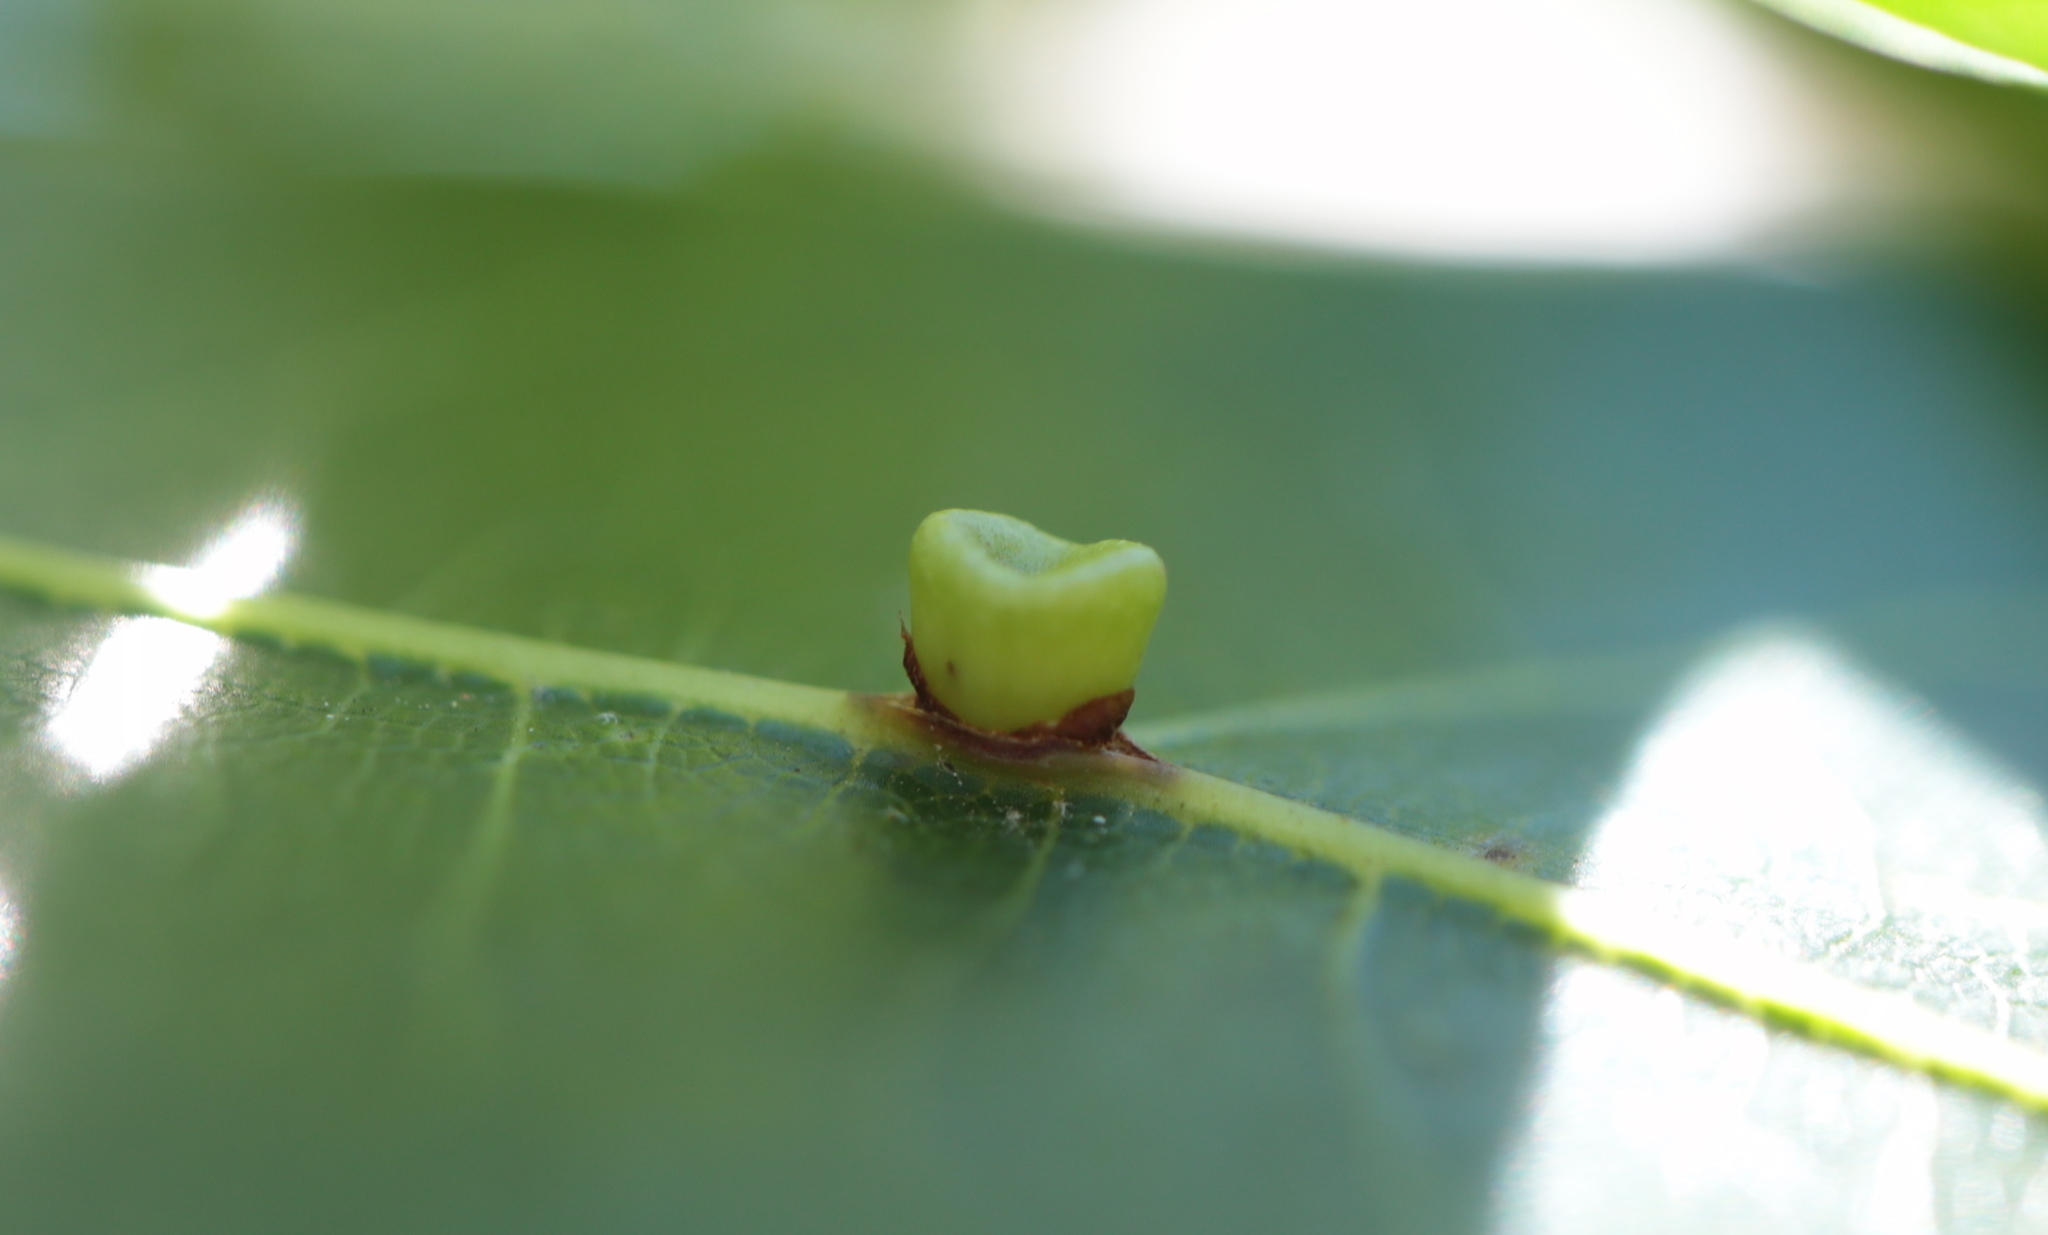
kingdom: Animalia
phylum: Arthropoda
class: Insecta
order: Hymenoptera
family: Cynipidae
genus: Kokkocynips
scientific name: Kokkocynips rileyi
